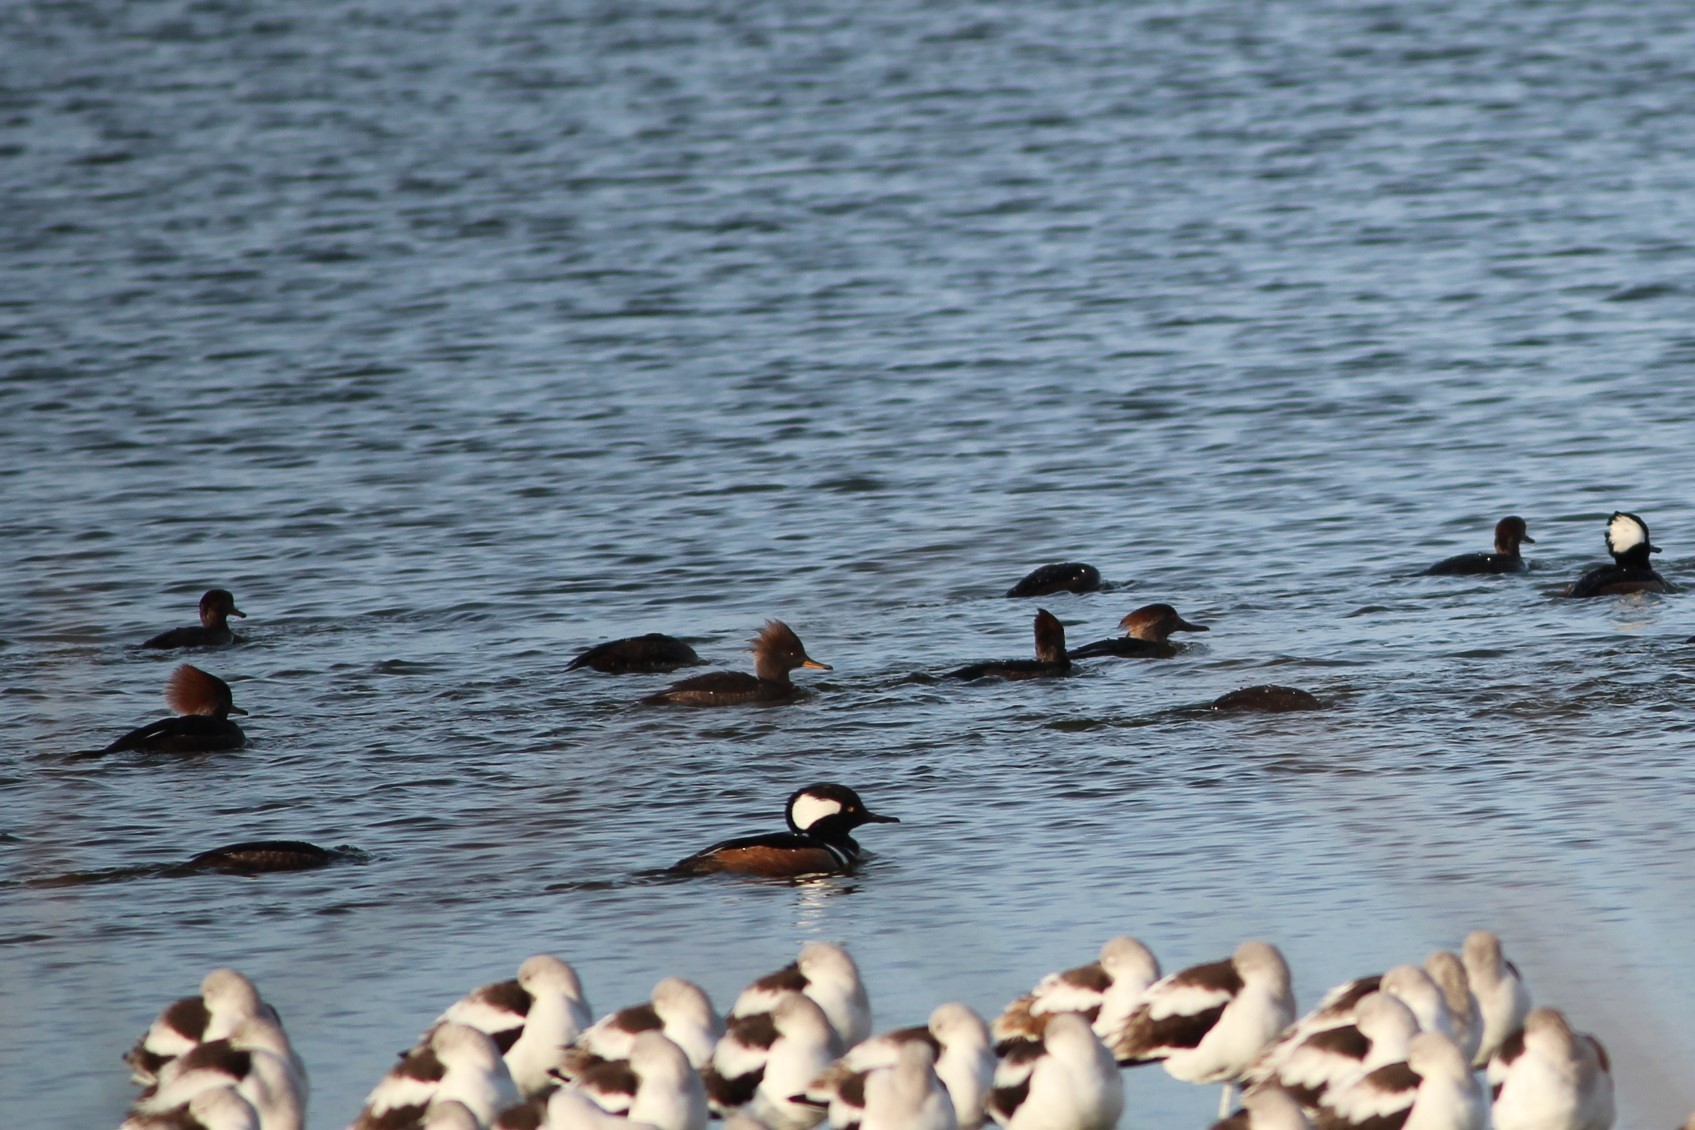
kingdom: Animalia
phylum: Chordata
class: Aves
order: Anseriformes
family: Anatidae
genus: Lophodytes
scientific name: Lophodytes cucullatus
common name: Hooded merganser
